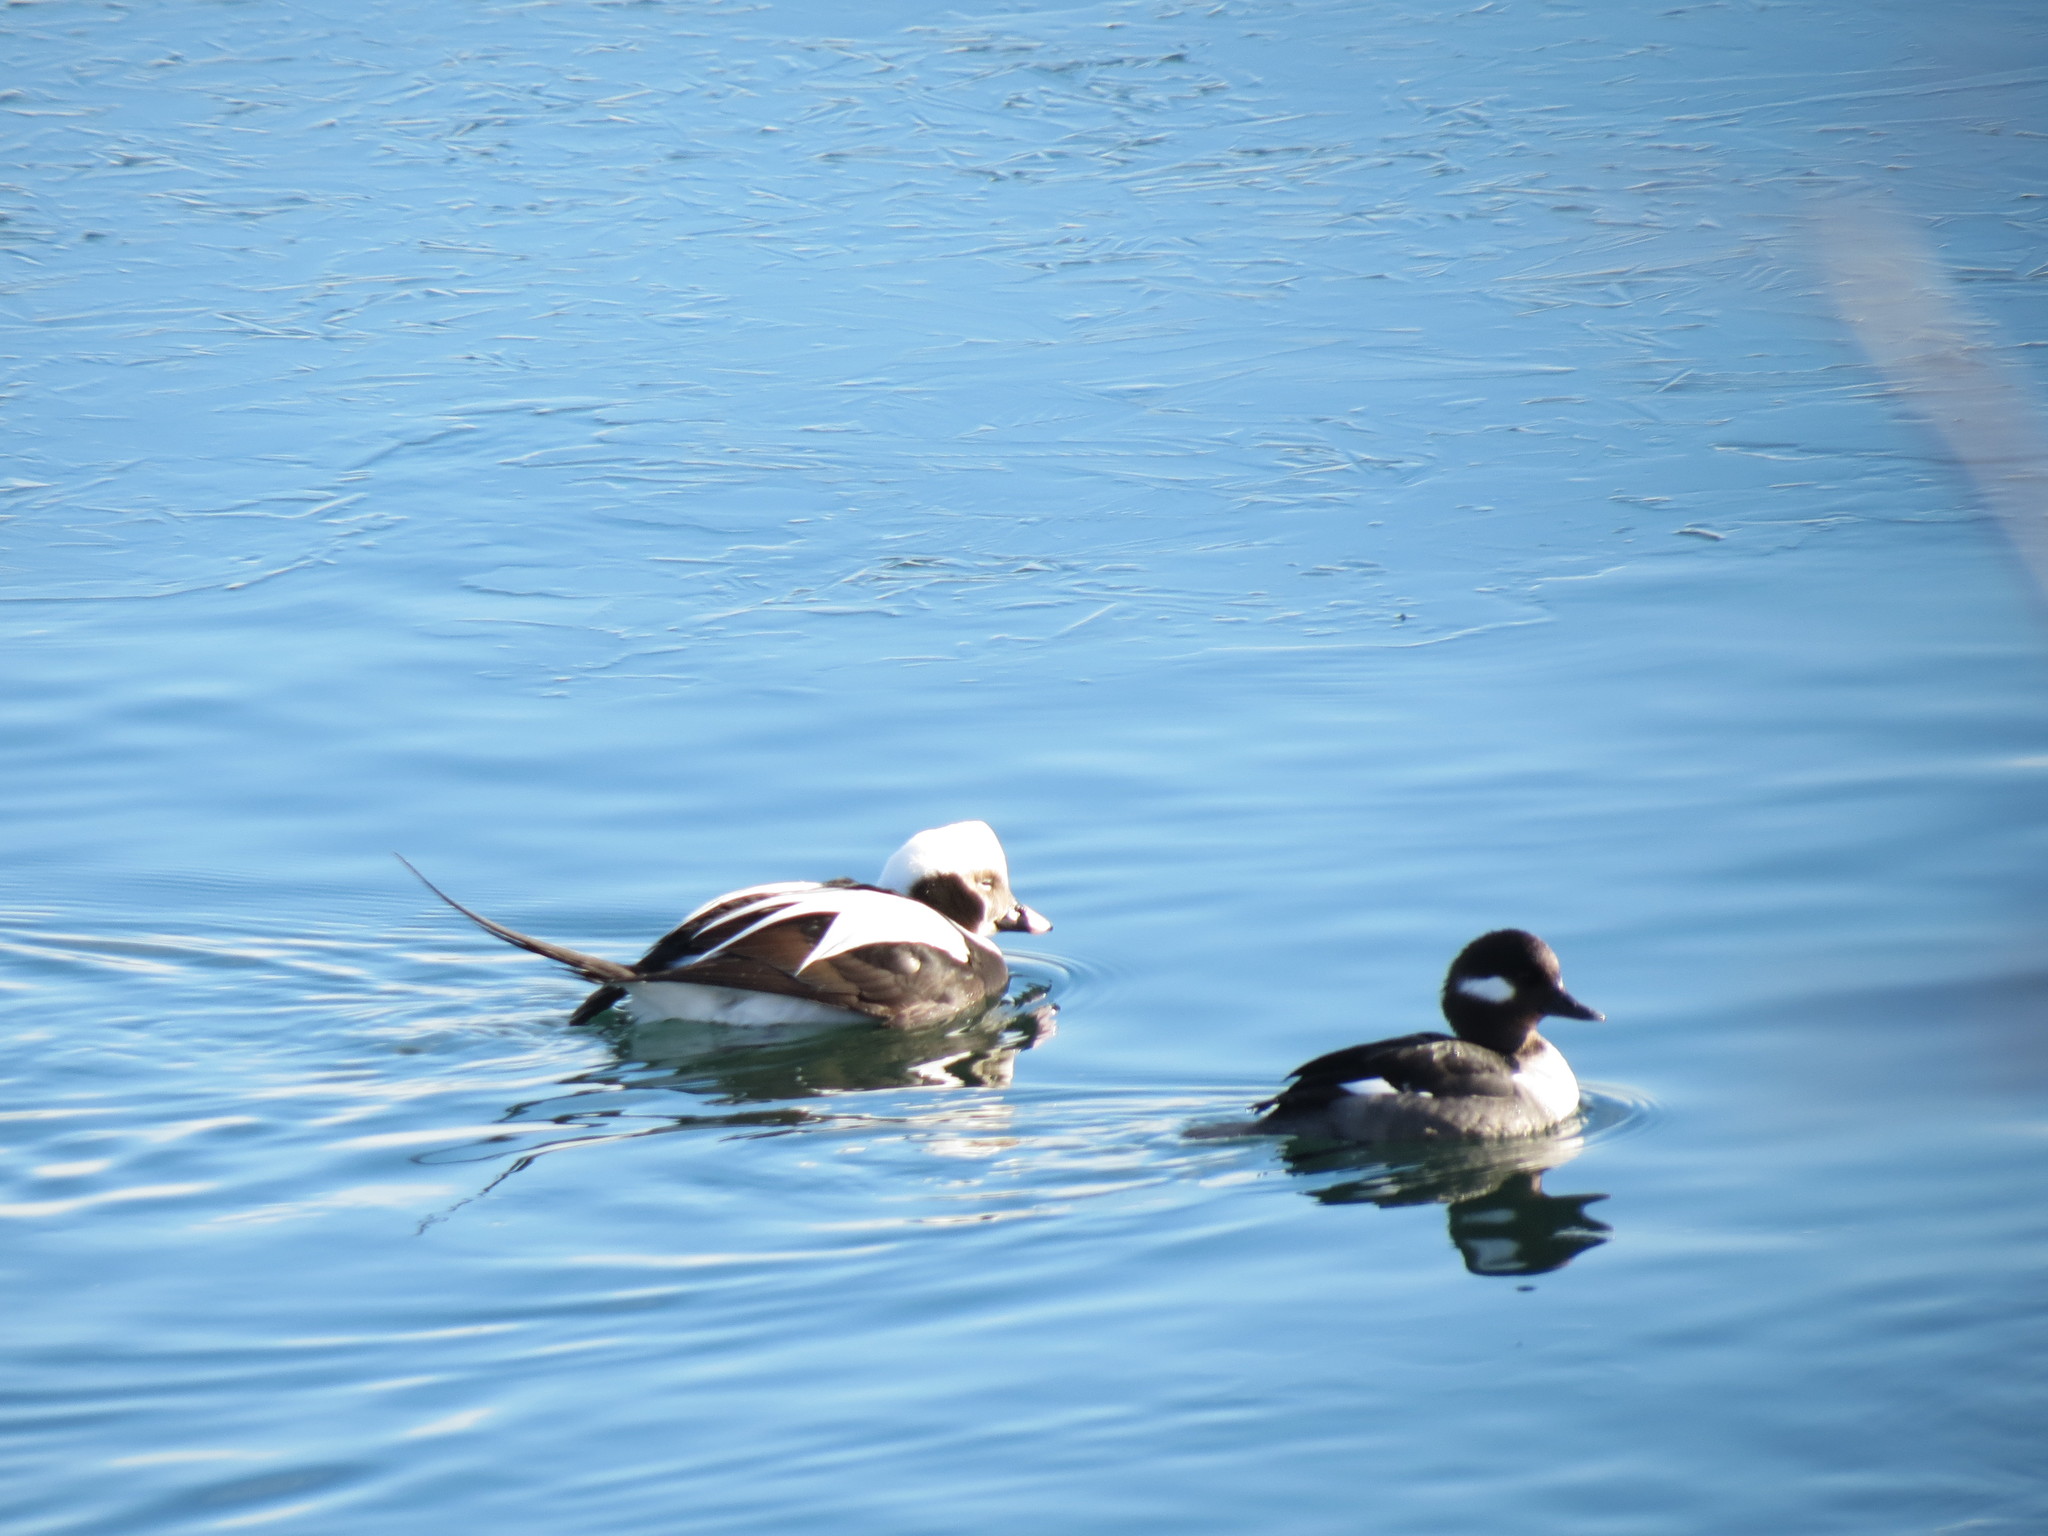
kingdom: Animalia
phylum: Chordata
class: Aves
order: Anseriformes
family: Anatidae
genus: Bucephala
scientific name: Bucephala albeola
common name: Bufflehead
